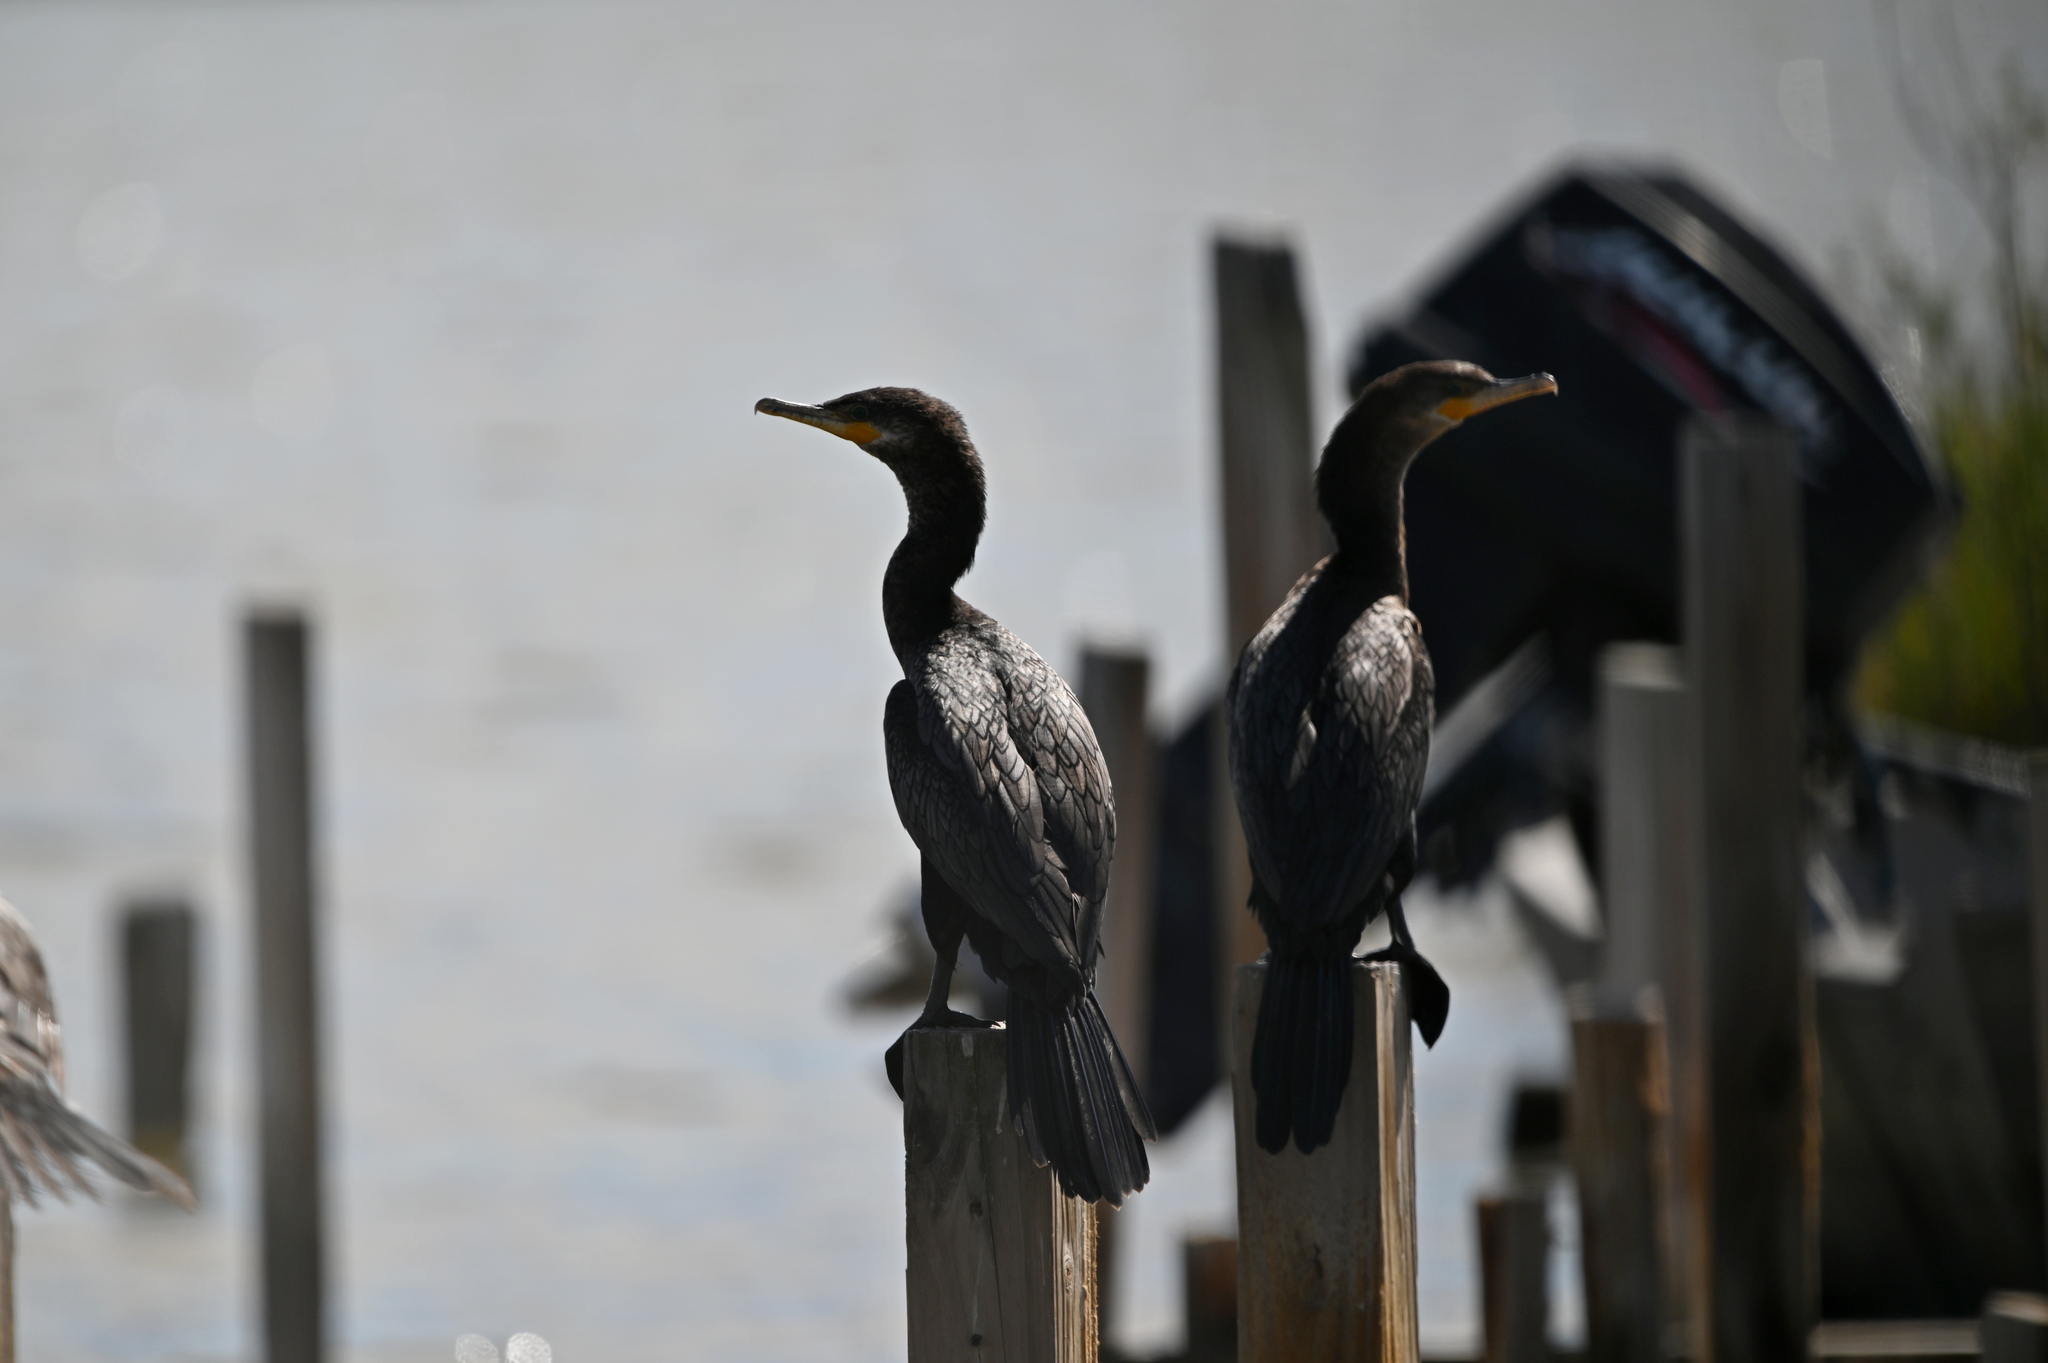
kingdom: Animalia
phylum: Chordata
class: Aves
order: Suliformes
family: Phalacrocoracidae
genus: Phalacrocorax
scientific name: Phalacrocorax brasilianus
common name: Neotropic cormorant
